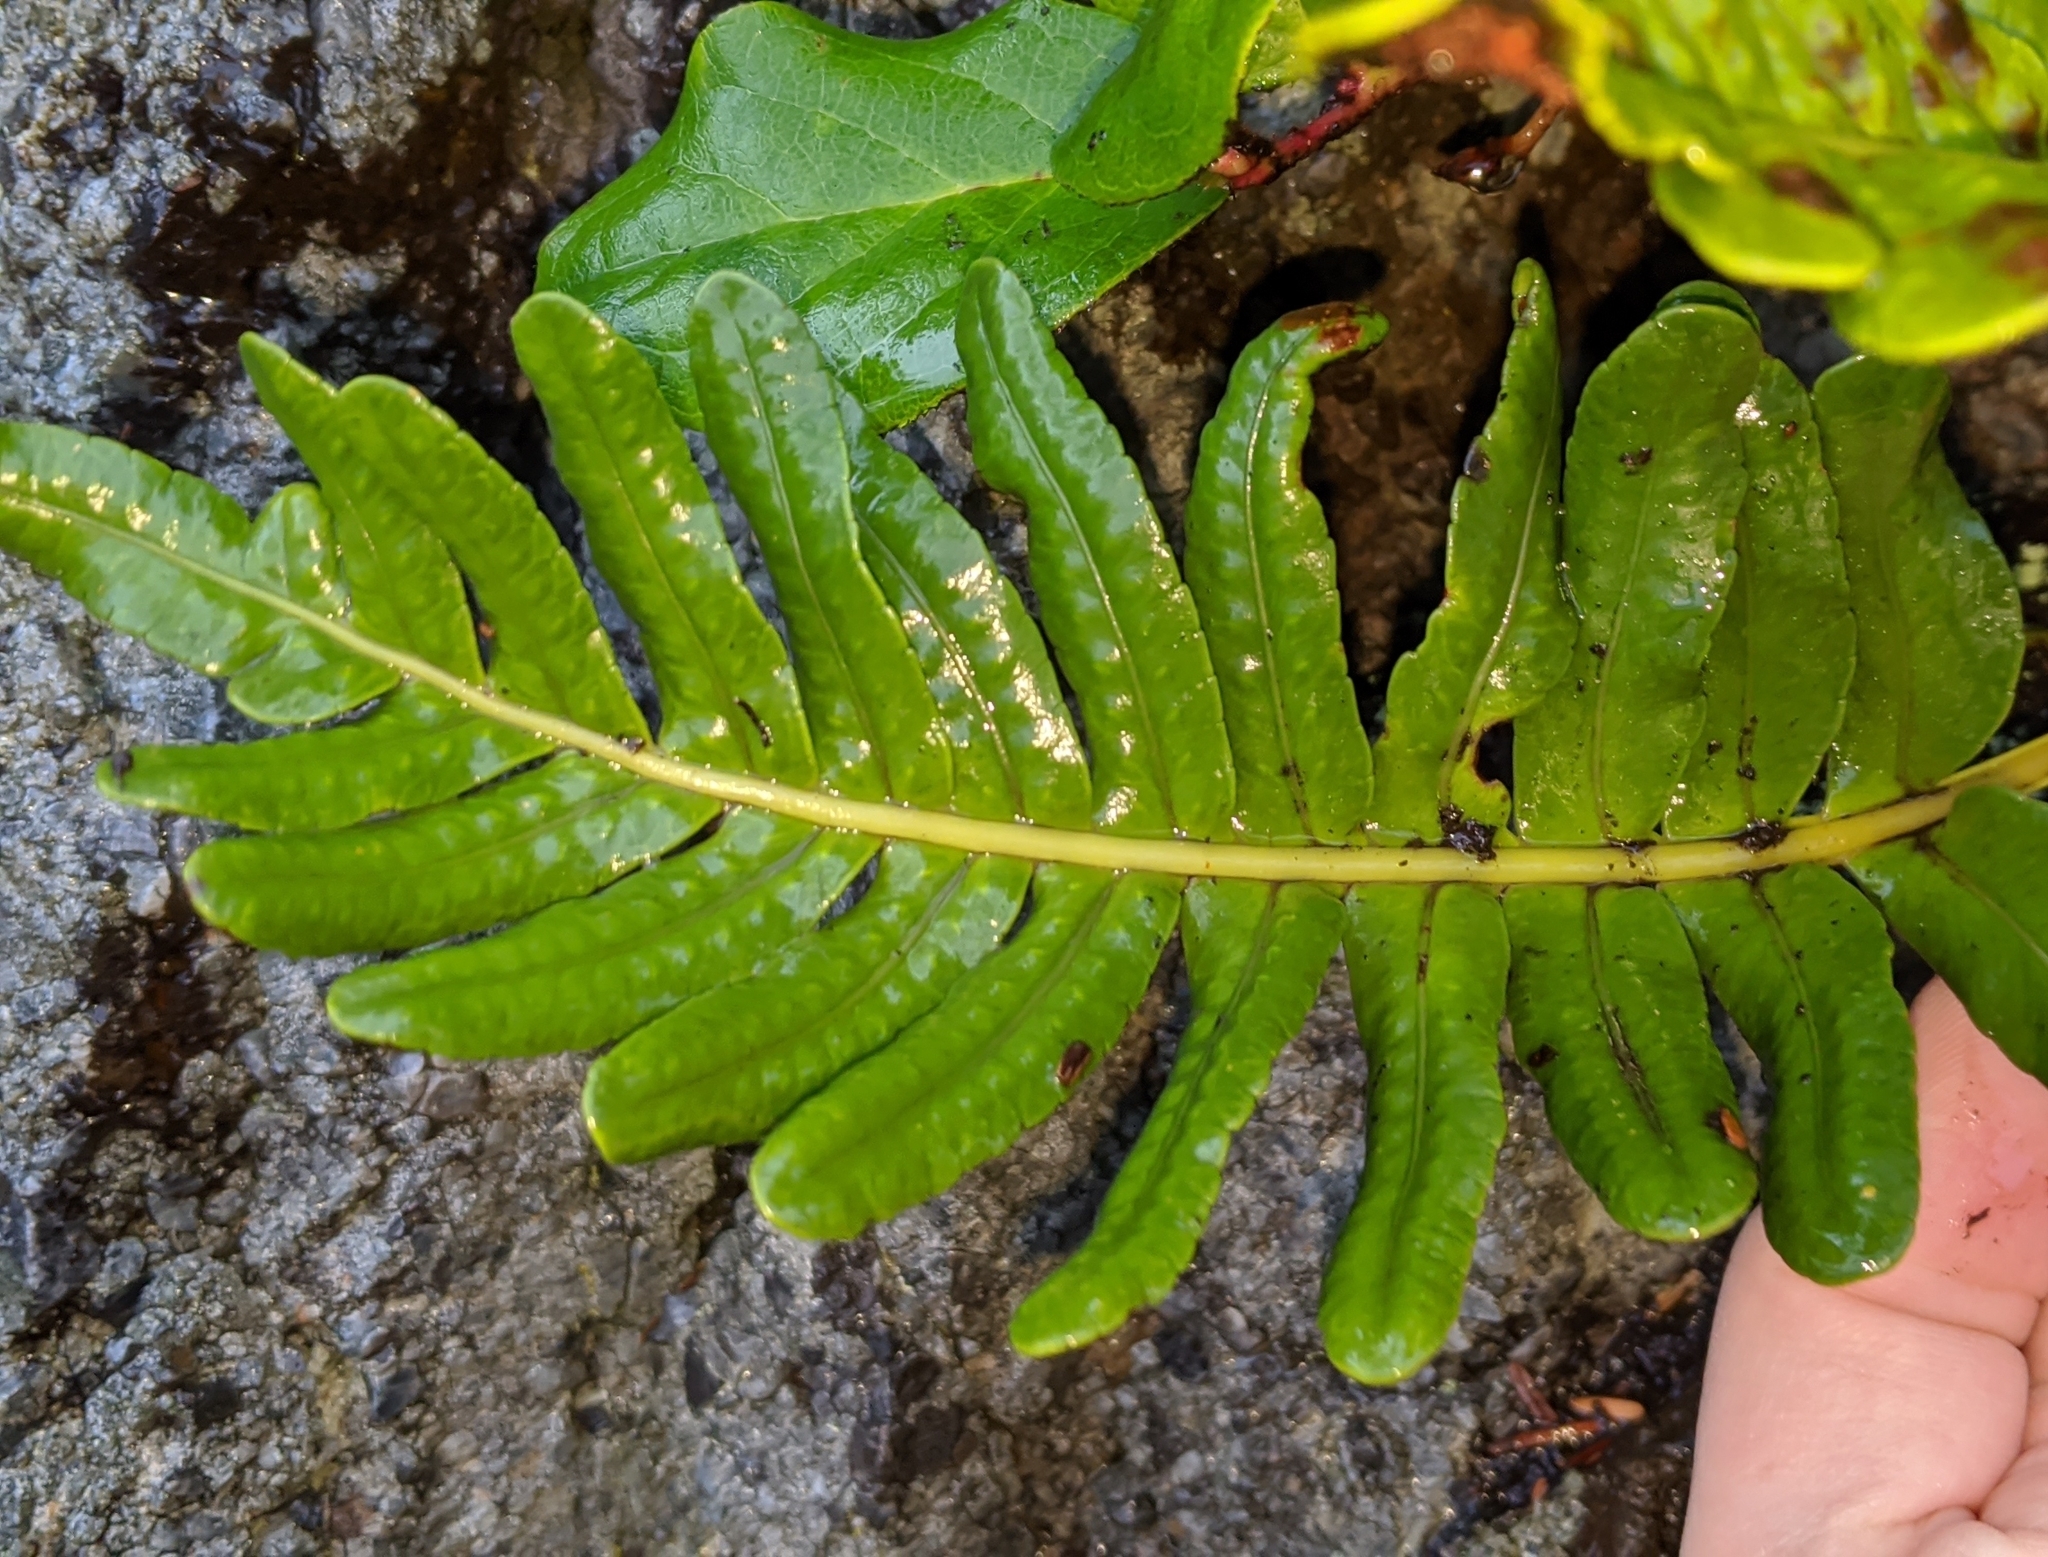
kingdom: Plantae
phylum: Tracheophyta
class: Polypodiopsida
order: Polypodiales
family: Polypodiaceae
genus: Polypodium
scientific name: Polypodium scouleri
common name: Scouler's polypody
